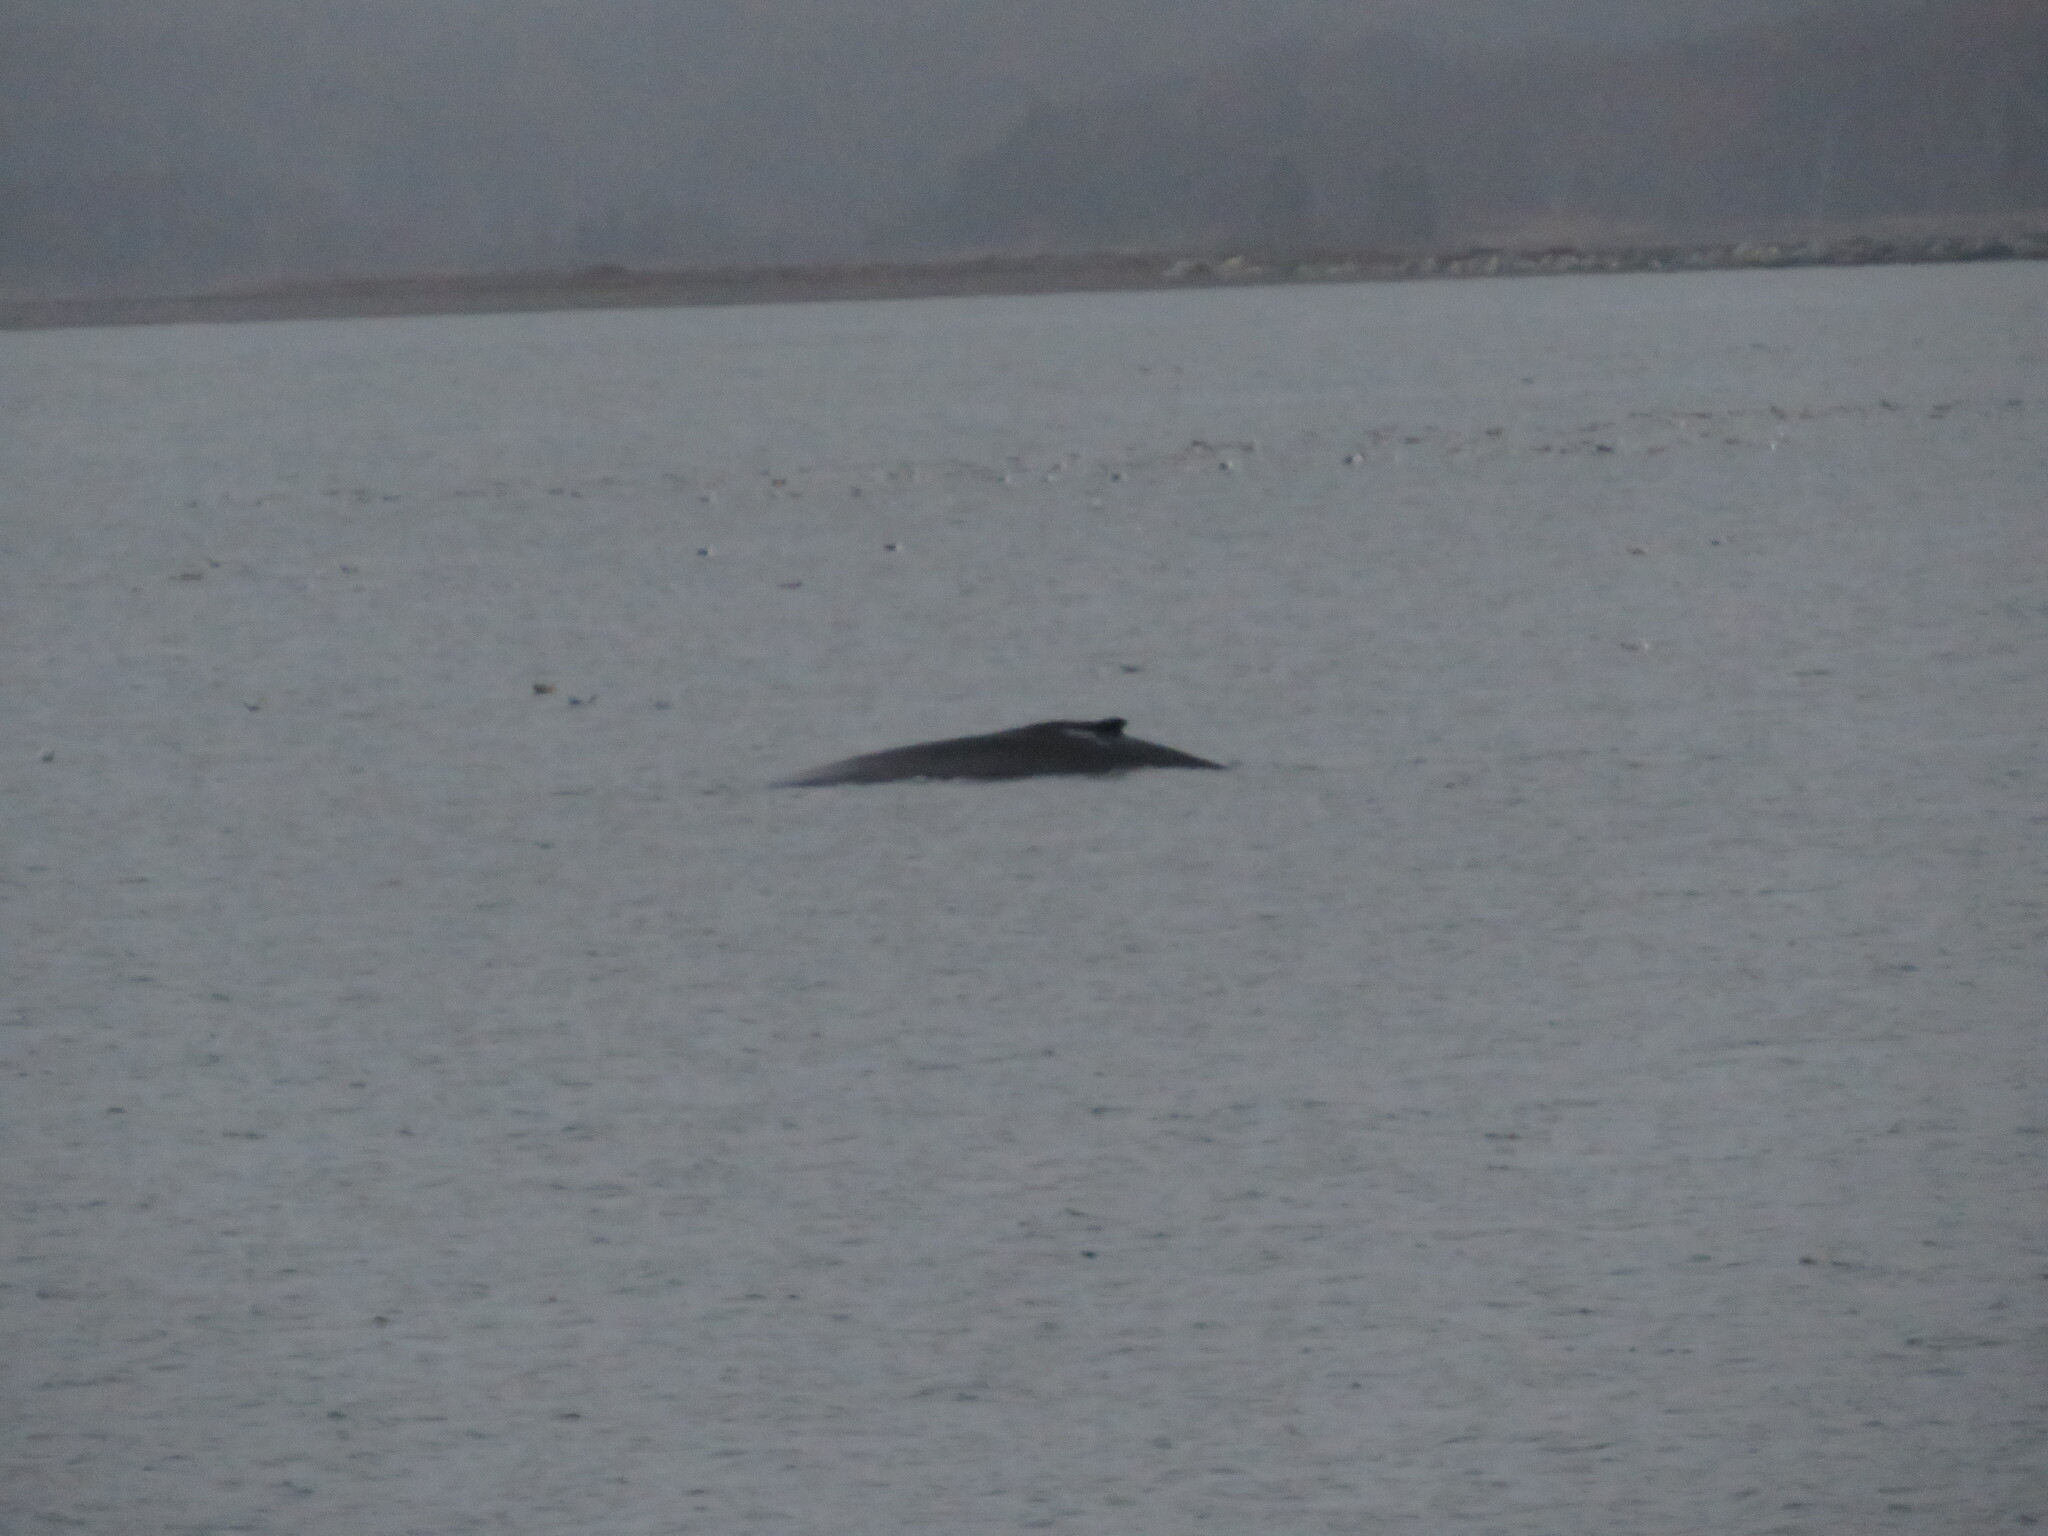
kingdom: Animalia
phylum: Chordata
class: Mammalia
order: Cetacea
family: Balaenopteridae
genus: Megaptera
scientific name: Megaptera novaeangliae
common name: Humpback whale
